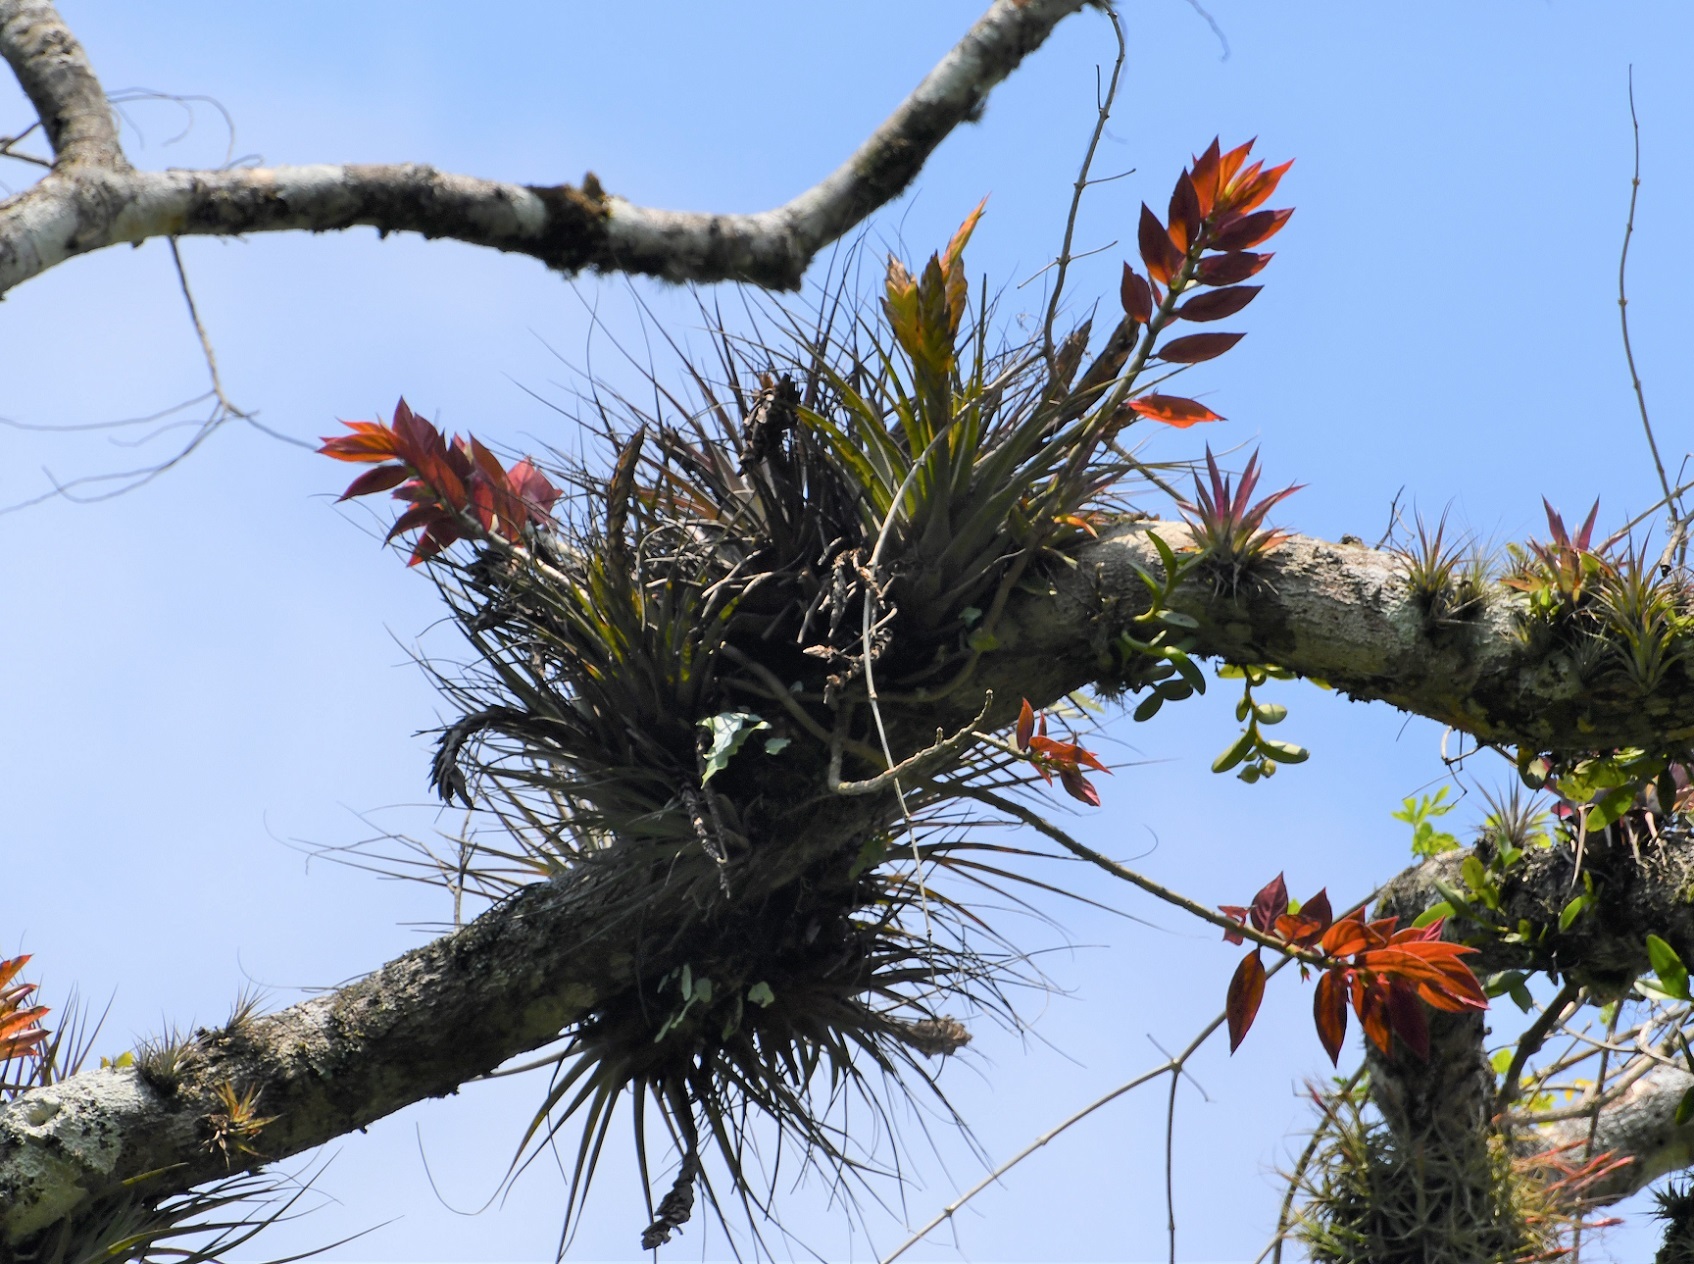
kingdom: Plantae
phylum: Tracheophyta
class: Liliopsida
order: Poales
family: Bromeliaceae
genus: Tillandsia
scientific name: Tillandsia zoquensis
